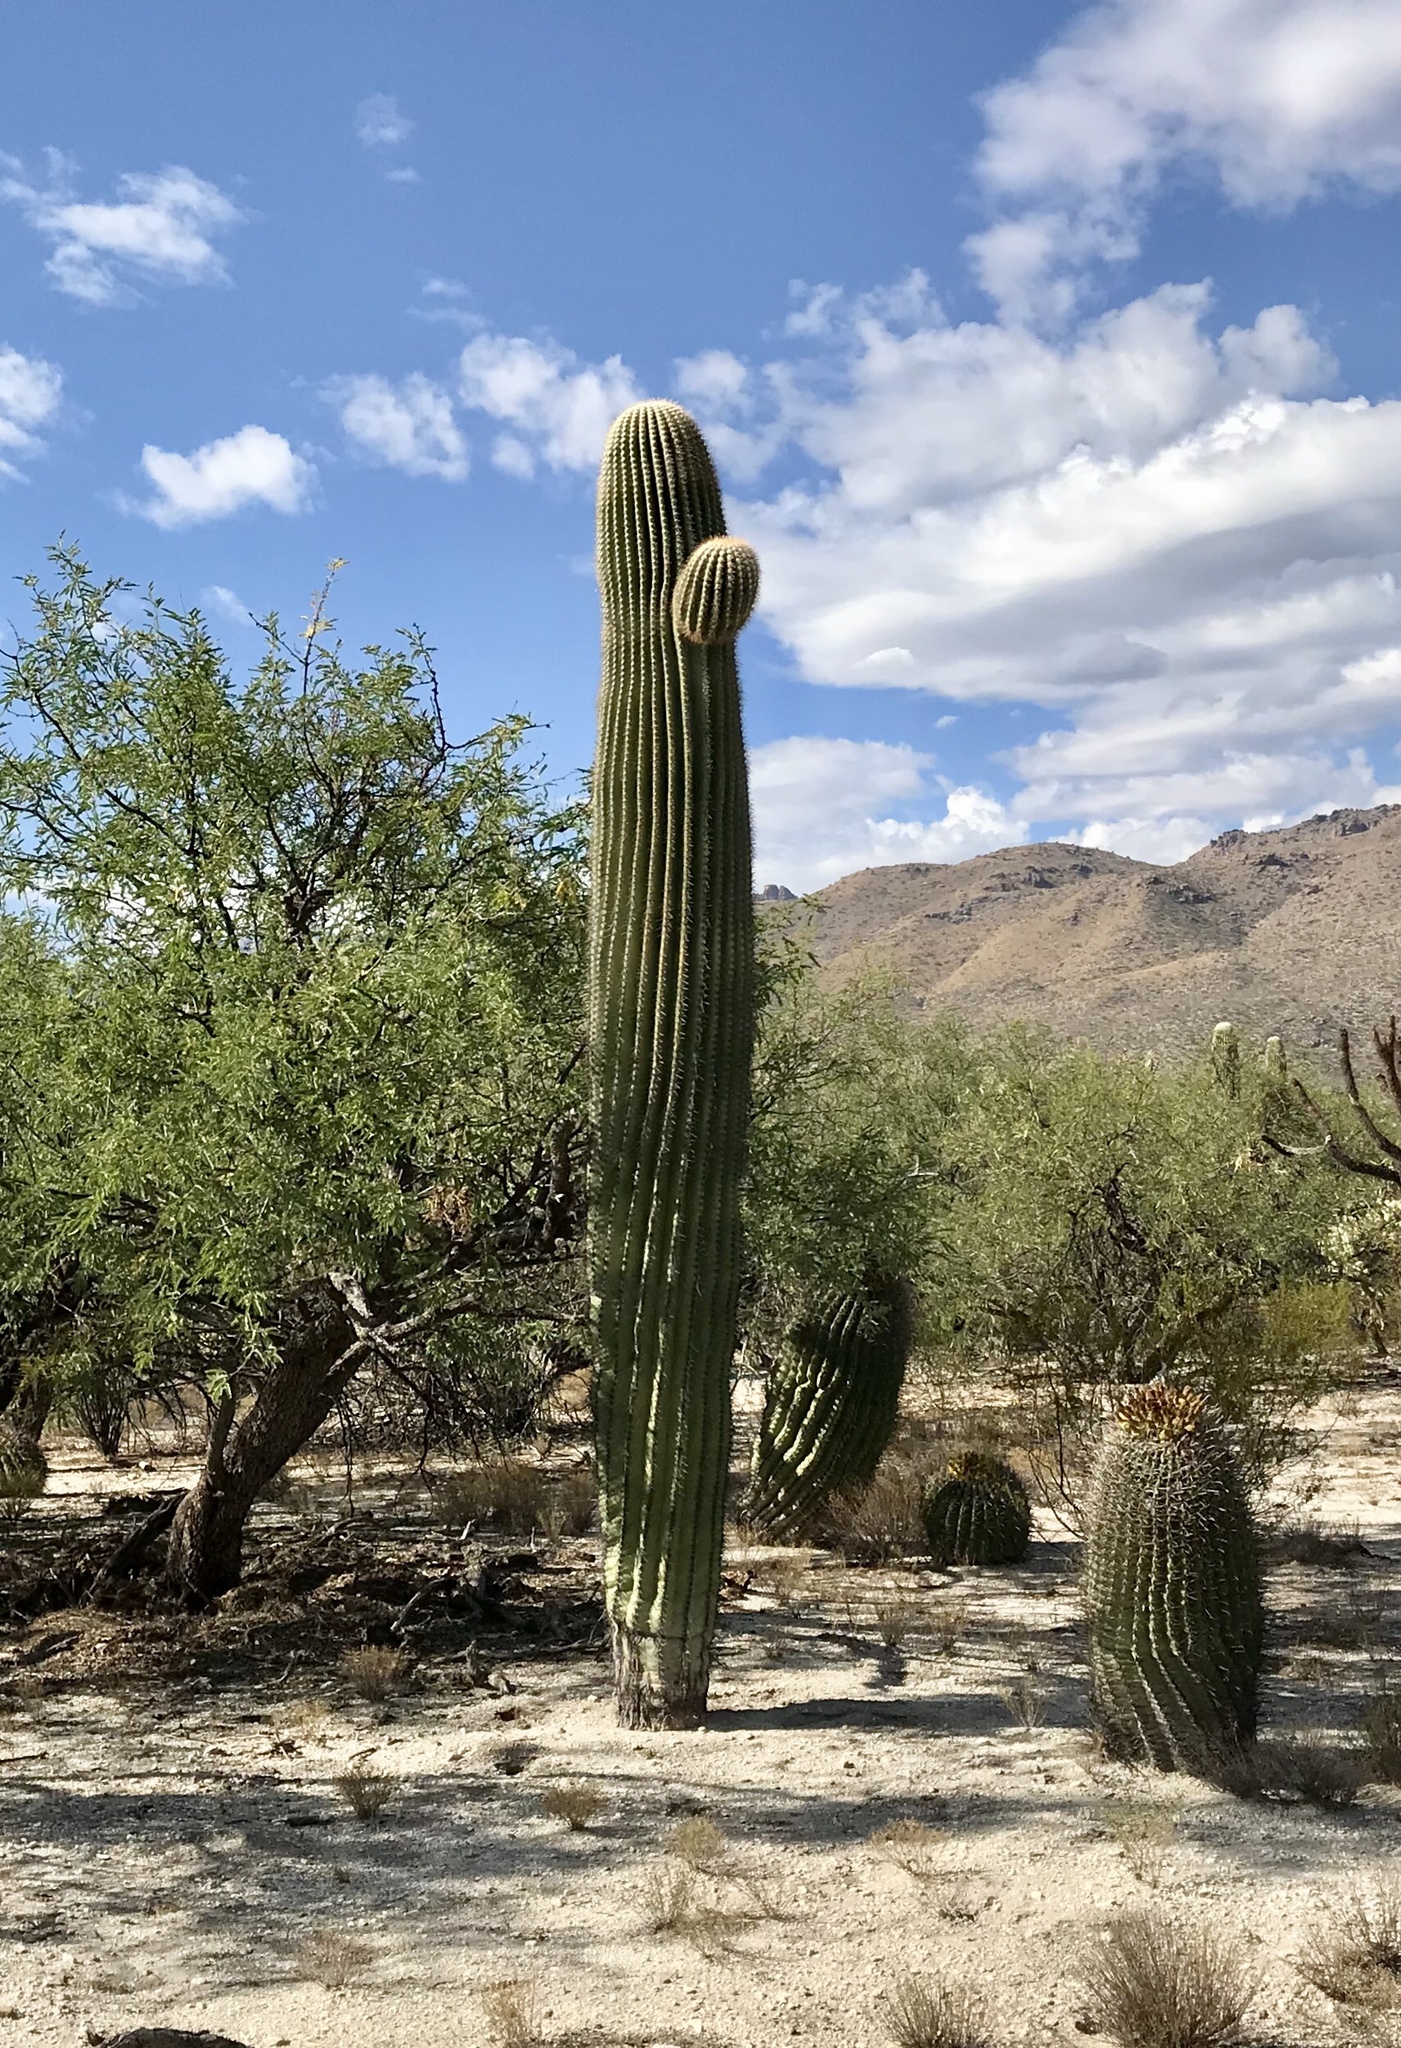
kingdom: Plantae
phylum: Tracheophyta
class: Magnoliopsida
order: Caryophyllales
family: Cactaceae
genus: Carnegiea
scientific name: Carnegiea gigantea
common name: Saguaro
